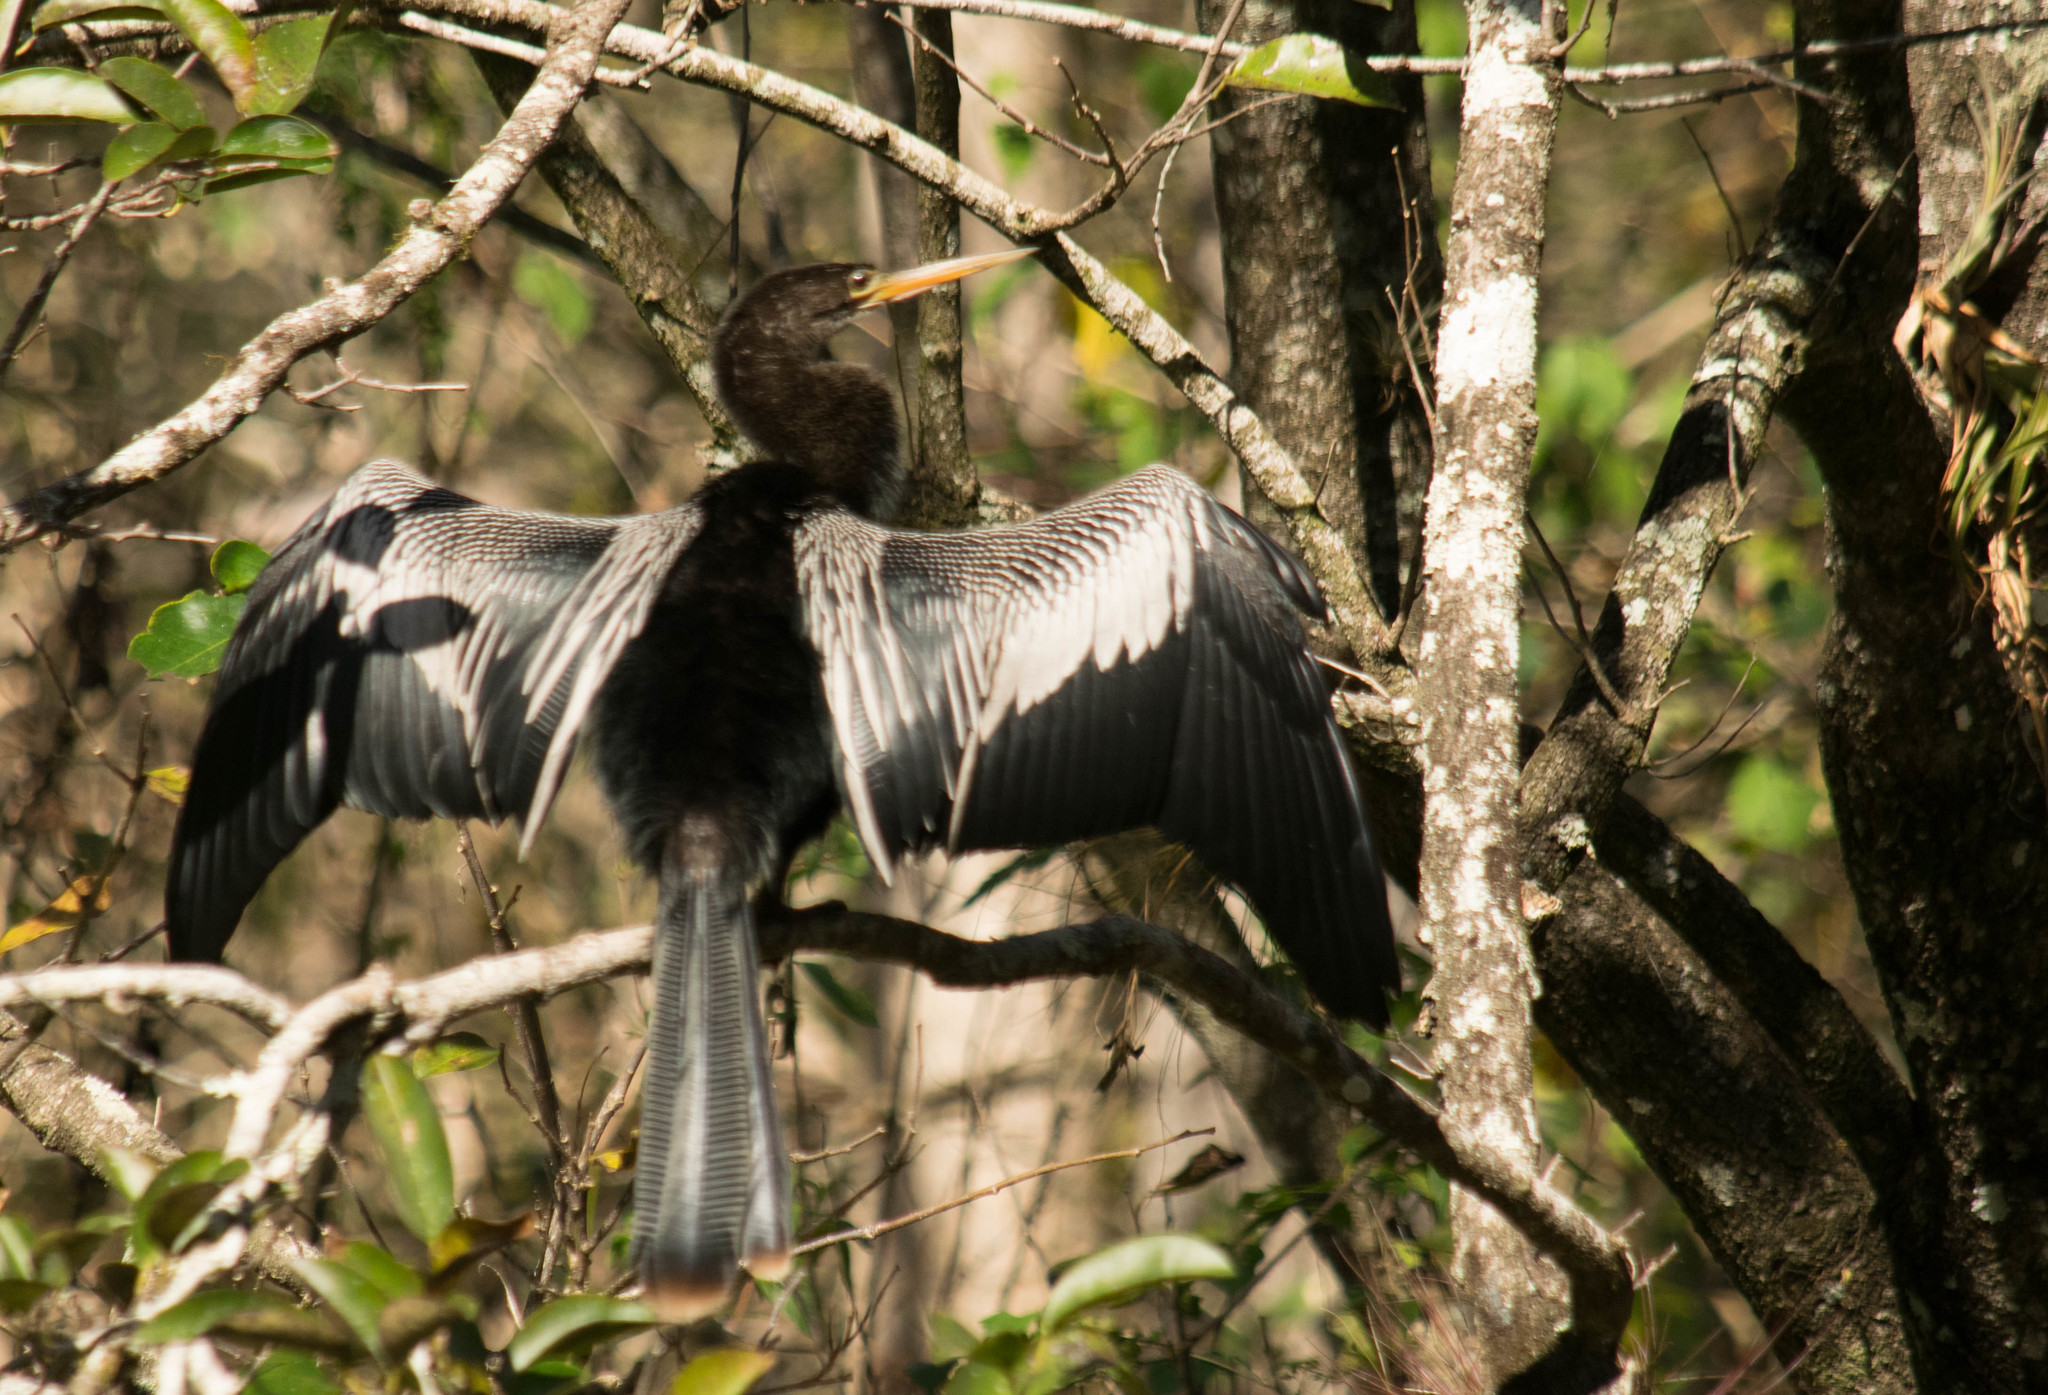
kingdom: Animalia
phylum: Chordata
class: Aves
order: Suliformes
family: Anhingidae
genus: Anhinga
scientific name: Anhinga anhinga
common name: Anhinga
